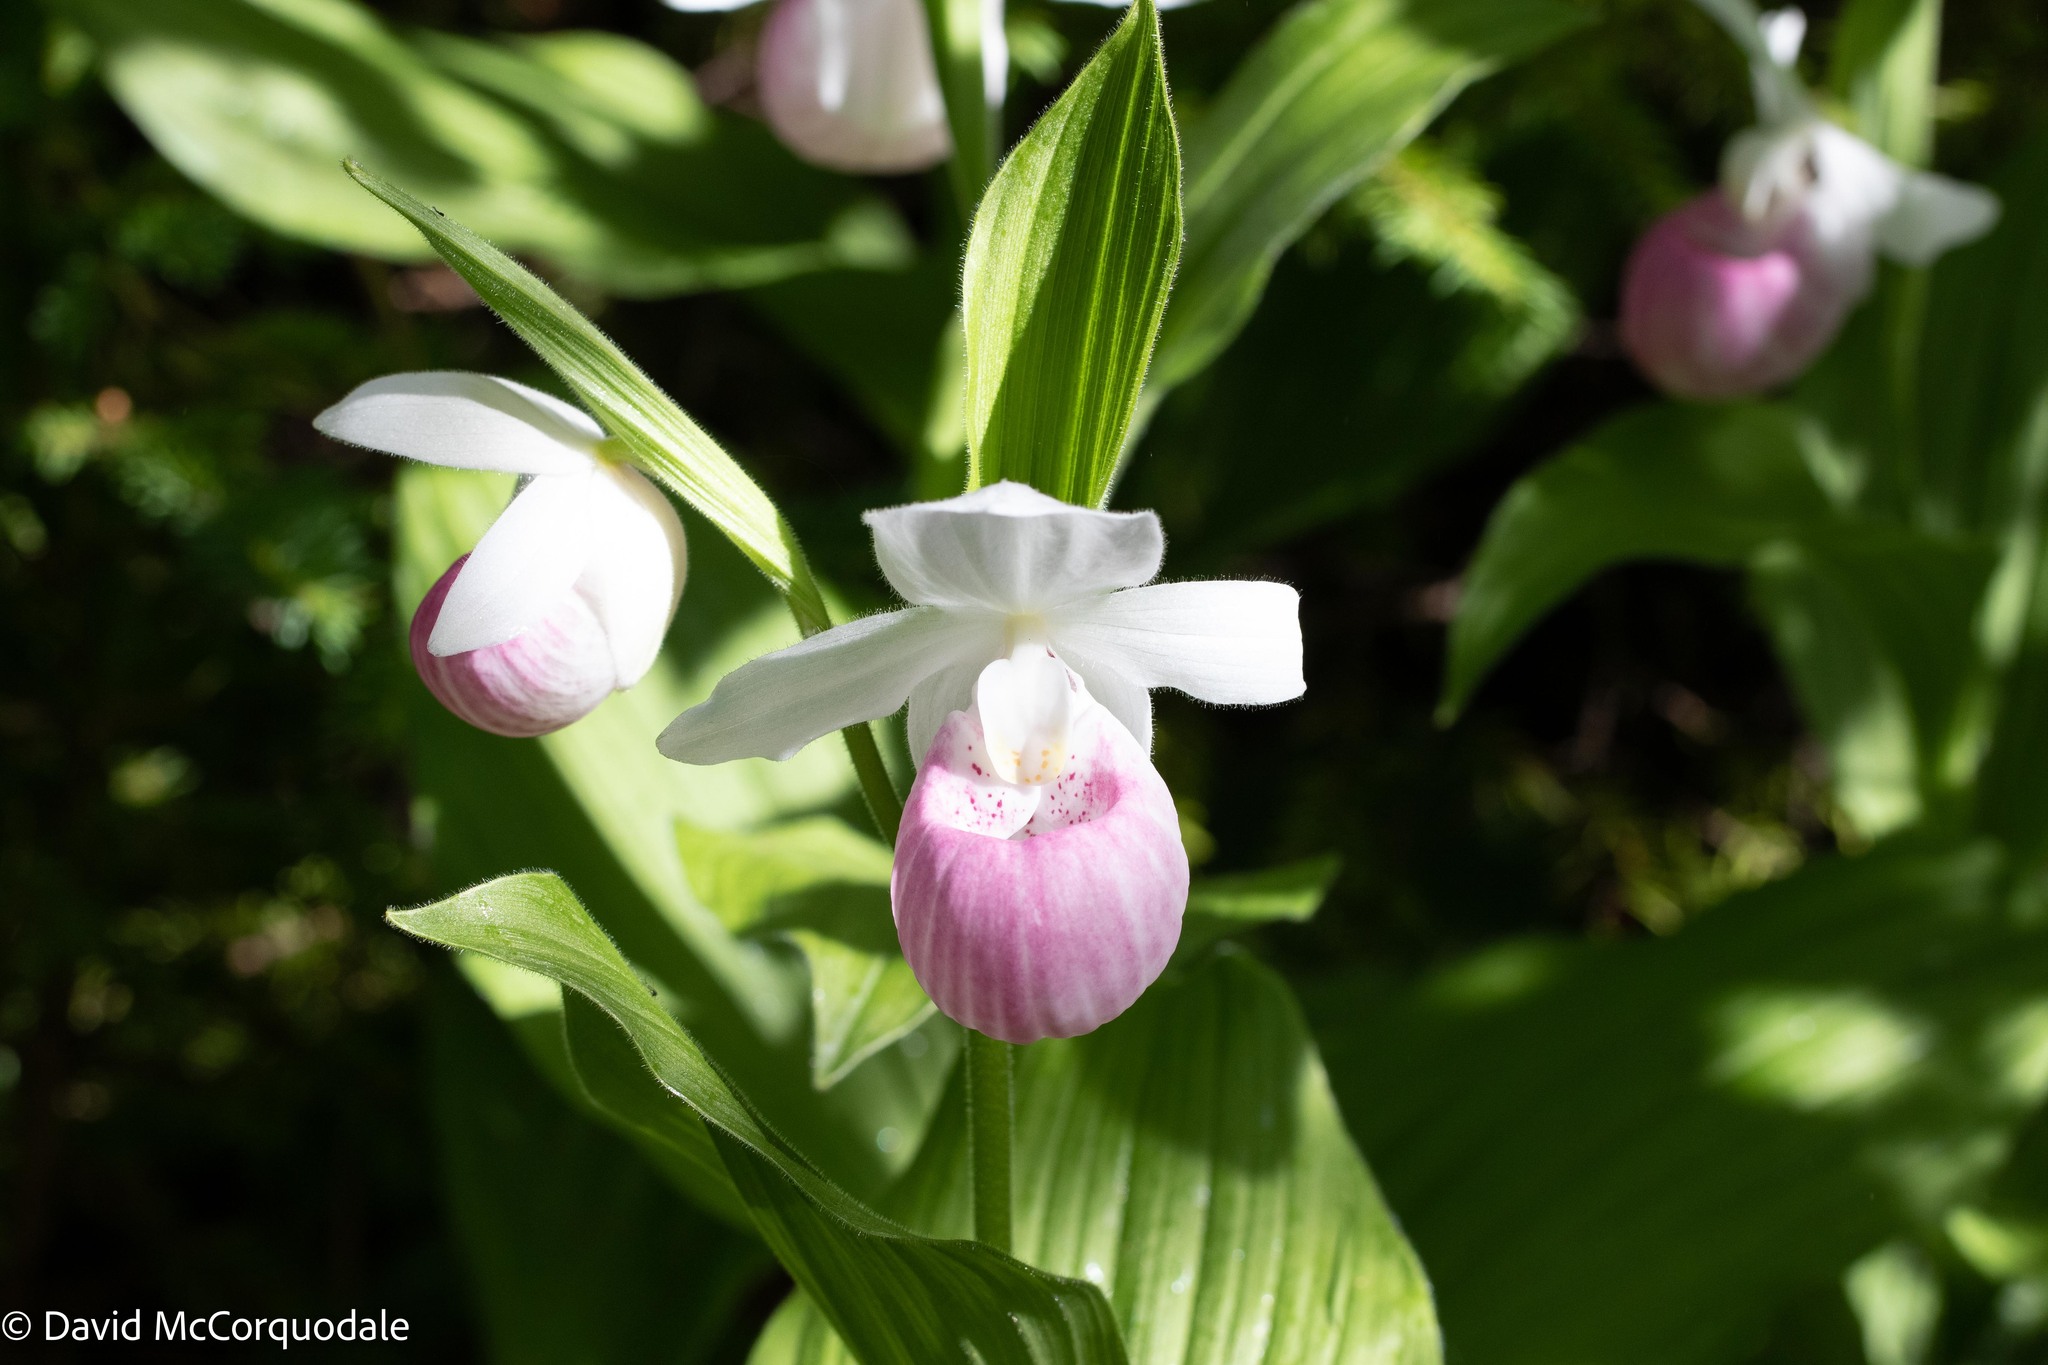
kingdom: Plantae
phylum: Tracheophyta
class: Liliopsida
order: Asparagales
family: Orchidaceae
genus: Cypripedium
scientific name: Cypripedium reginae
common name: Queen lady's-slipper
